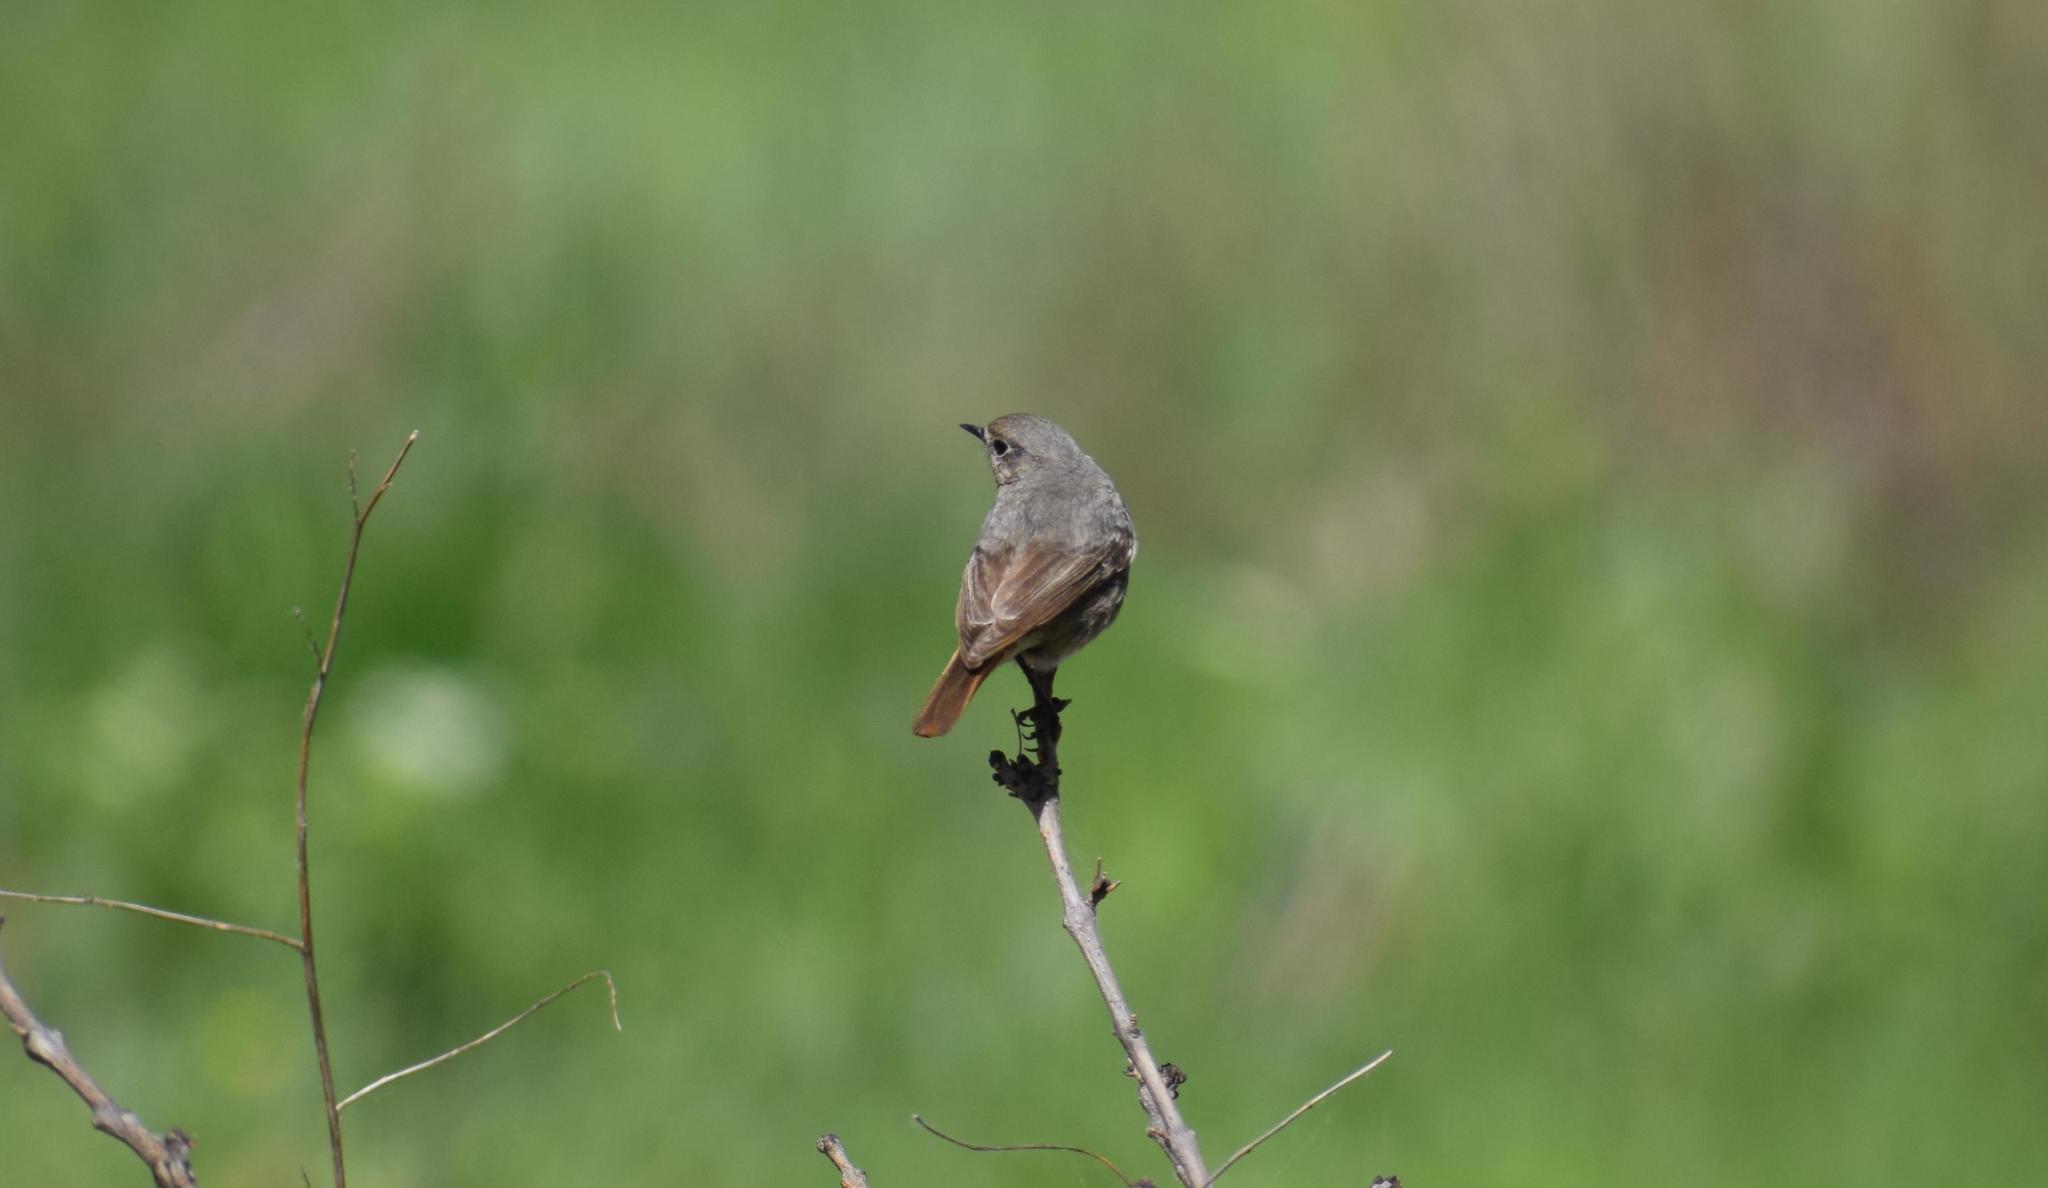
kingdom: Animalia
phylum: Chordata
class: Aves
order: Passeriformes
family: Muscicapidae
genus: Phoenicurus
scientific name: Phoenicurus ochruros
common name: Black redstart
